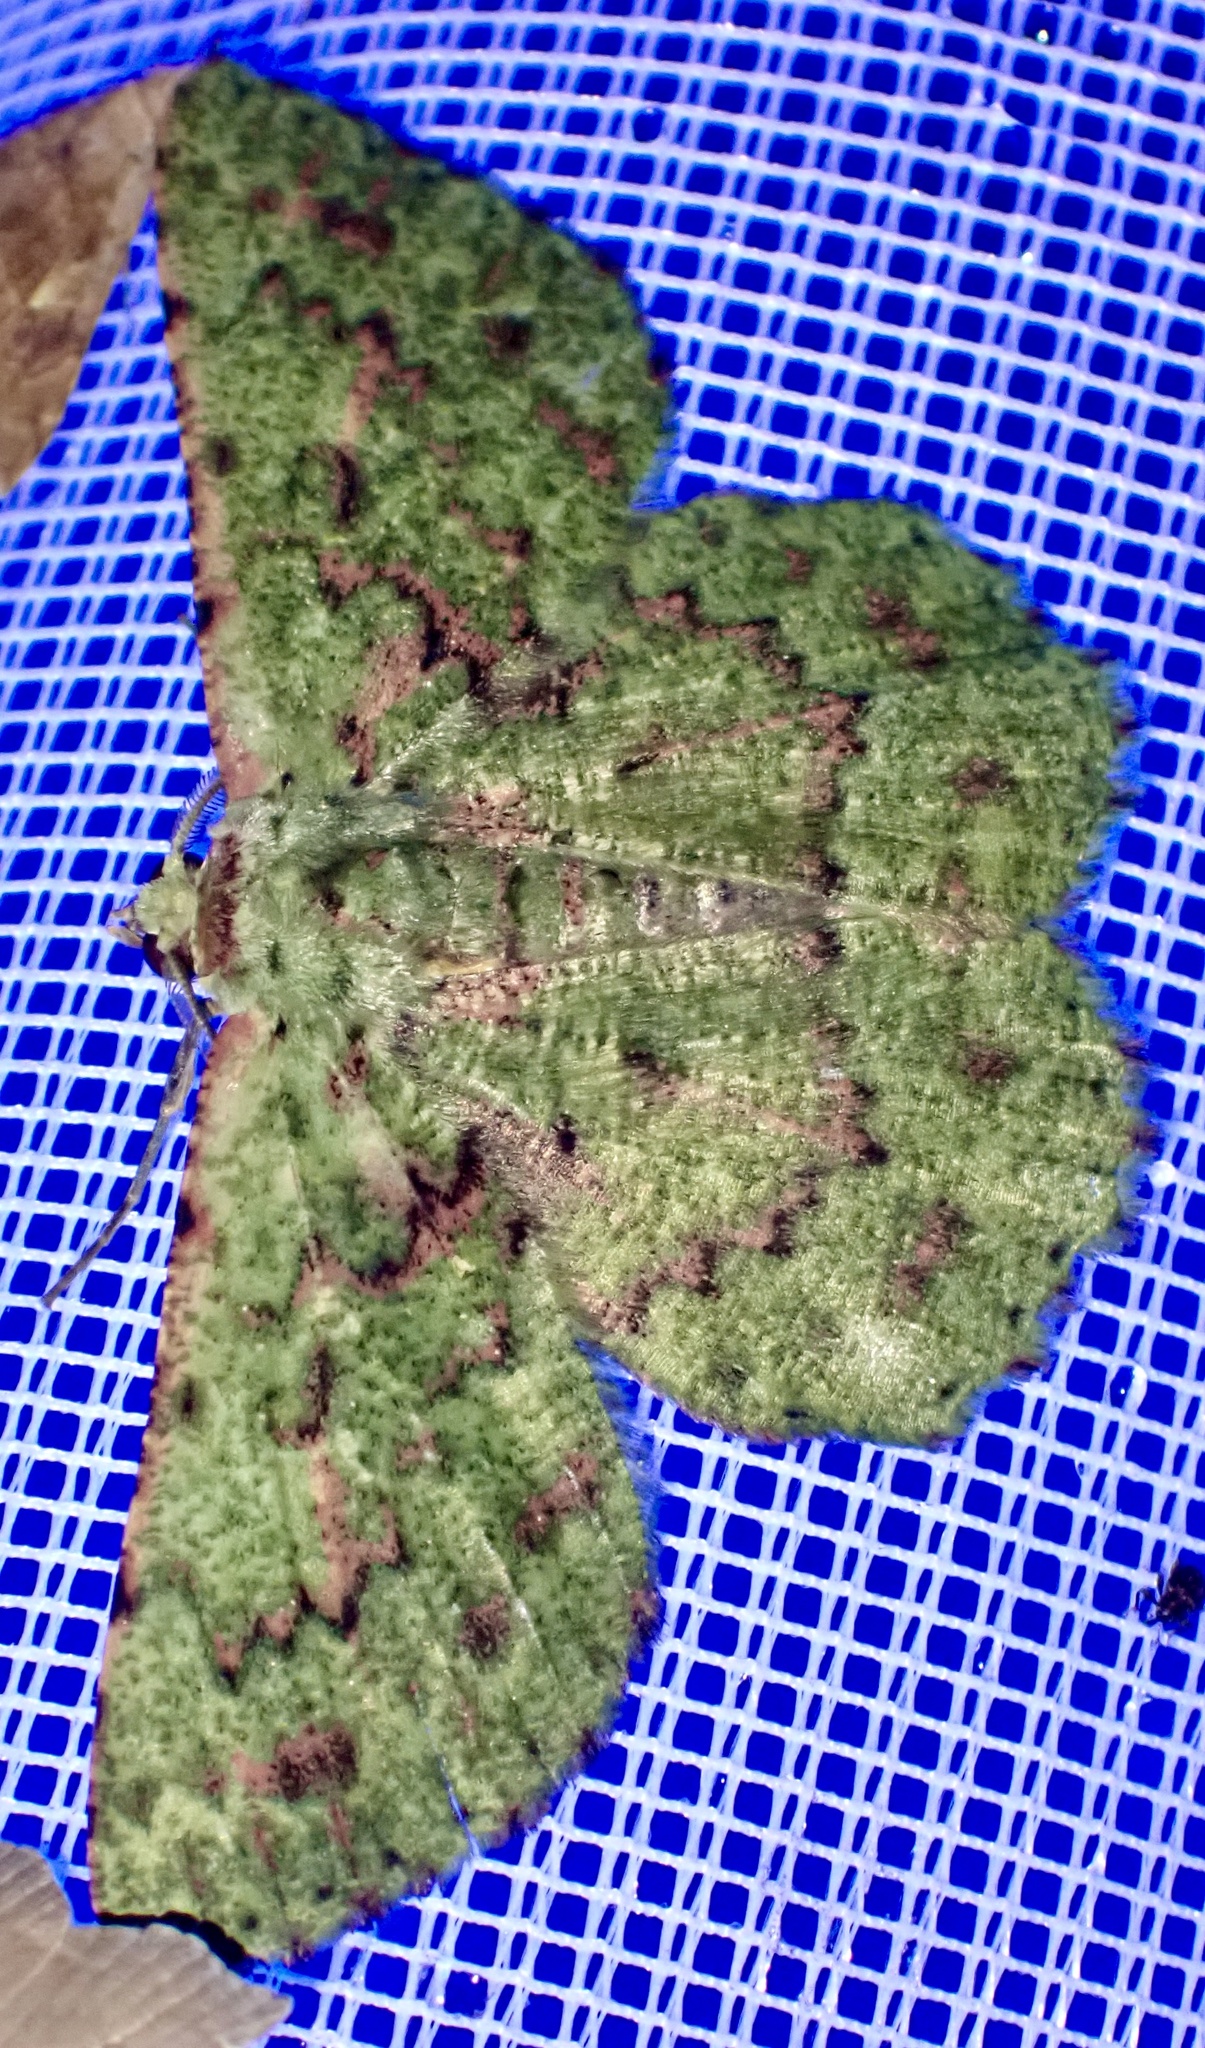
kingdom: Animalia
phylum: Arthropoda
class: Insecta
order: Lepidoptera
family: Geometridae
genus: Aeolochroma
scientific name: Aeolochroma saturataria
